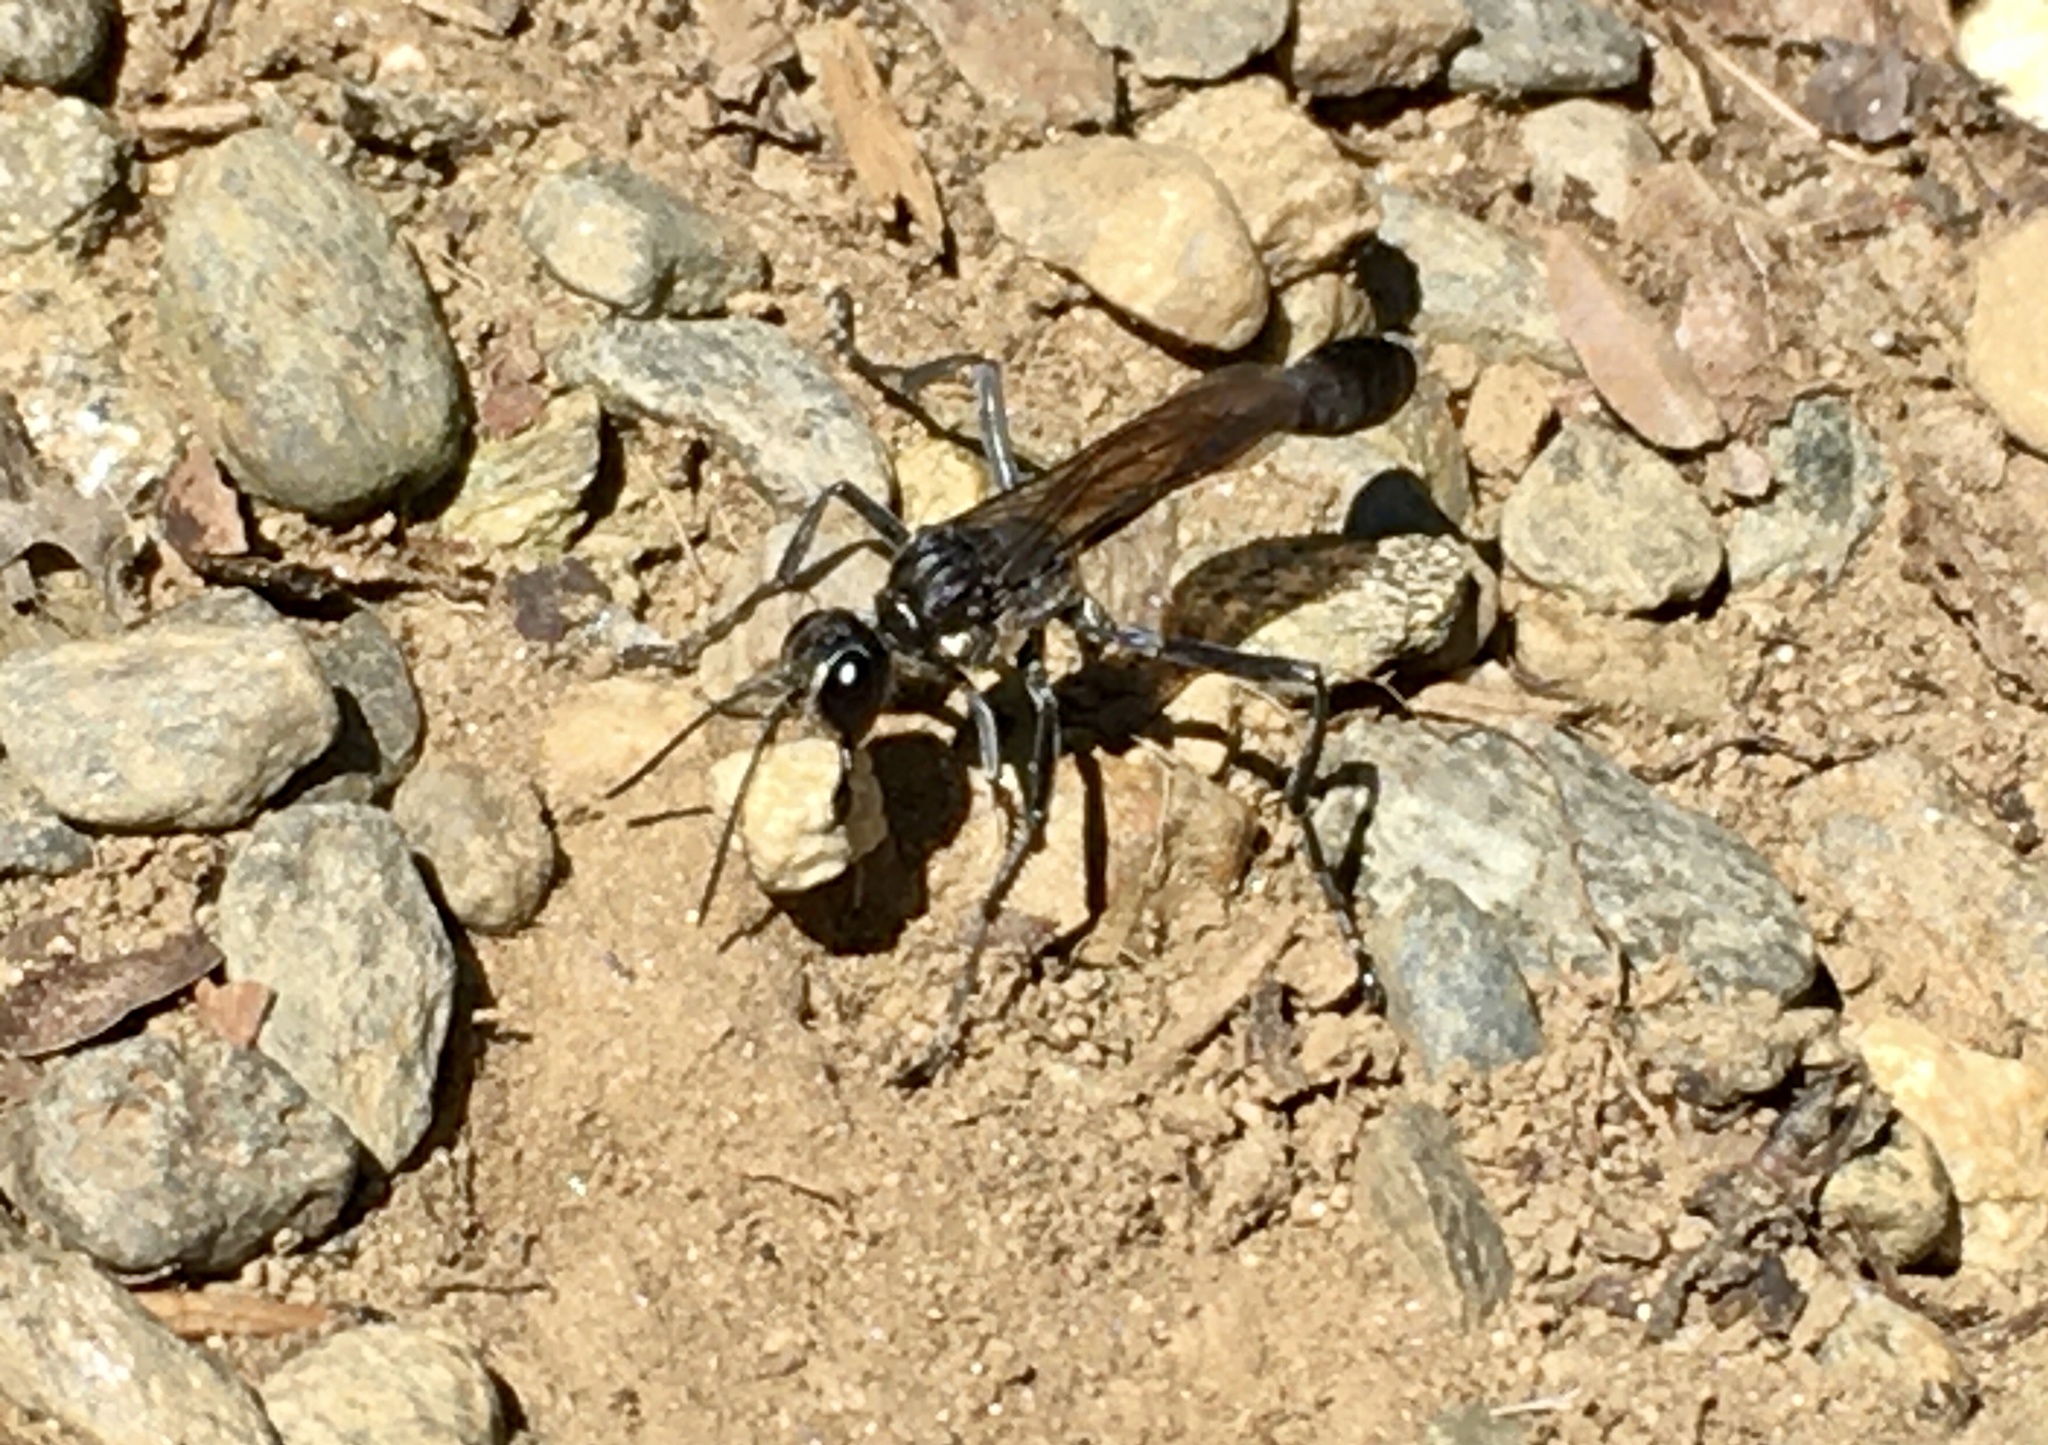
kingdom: Animalia
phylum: Arthropoda
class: Insecta
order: Hymenoptera
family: Sphecidae
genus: Eremnophila
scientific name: Eremnophila aureonotata
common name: Gold-marked thread-waisted wasp
